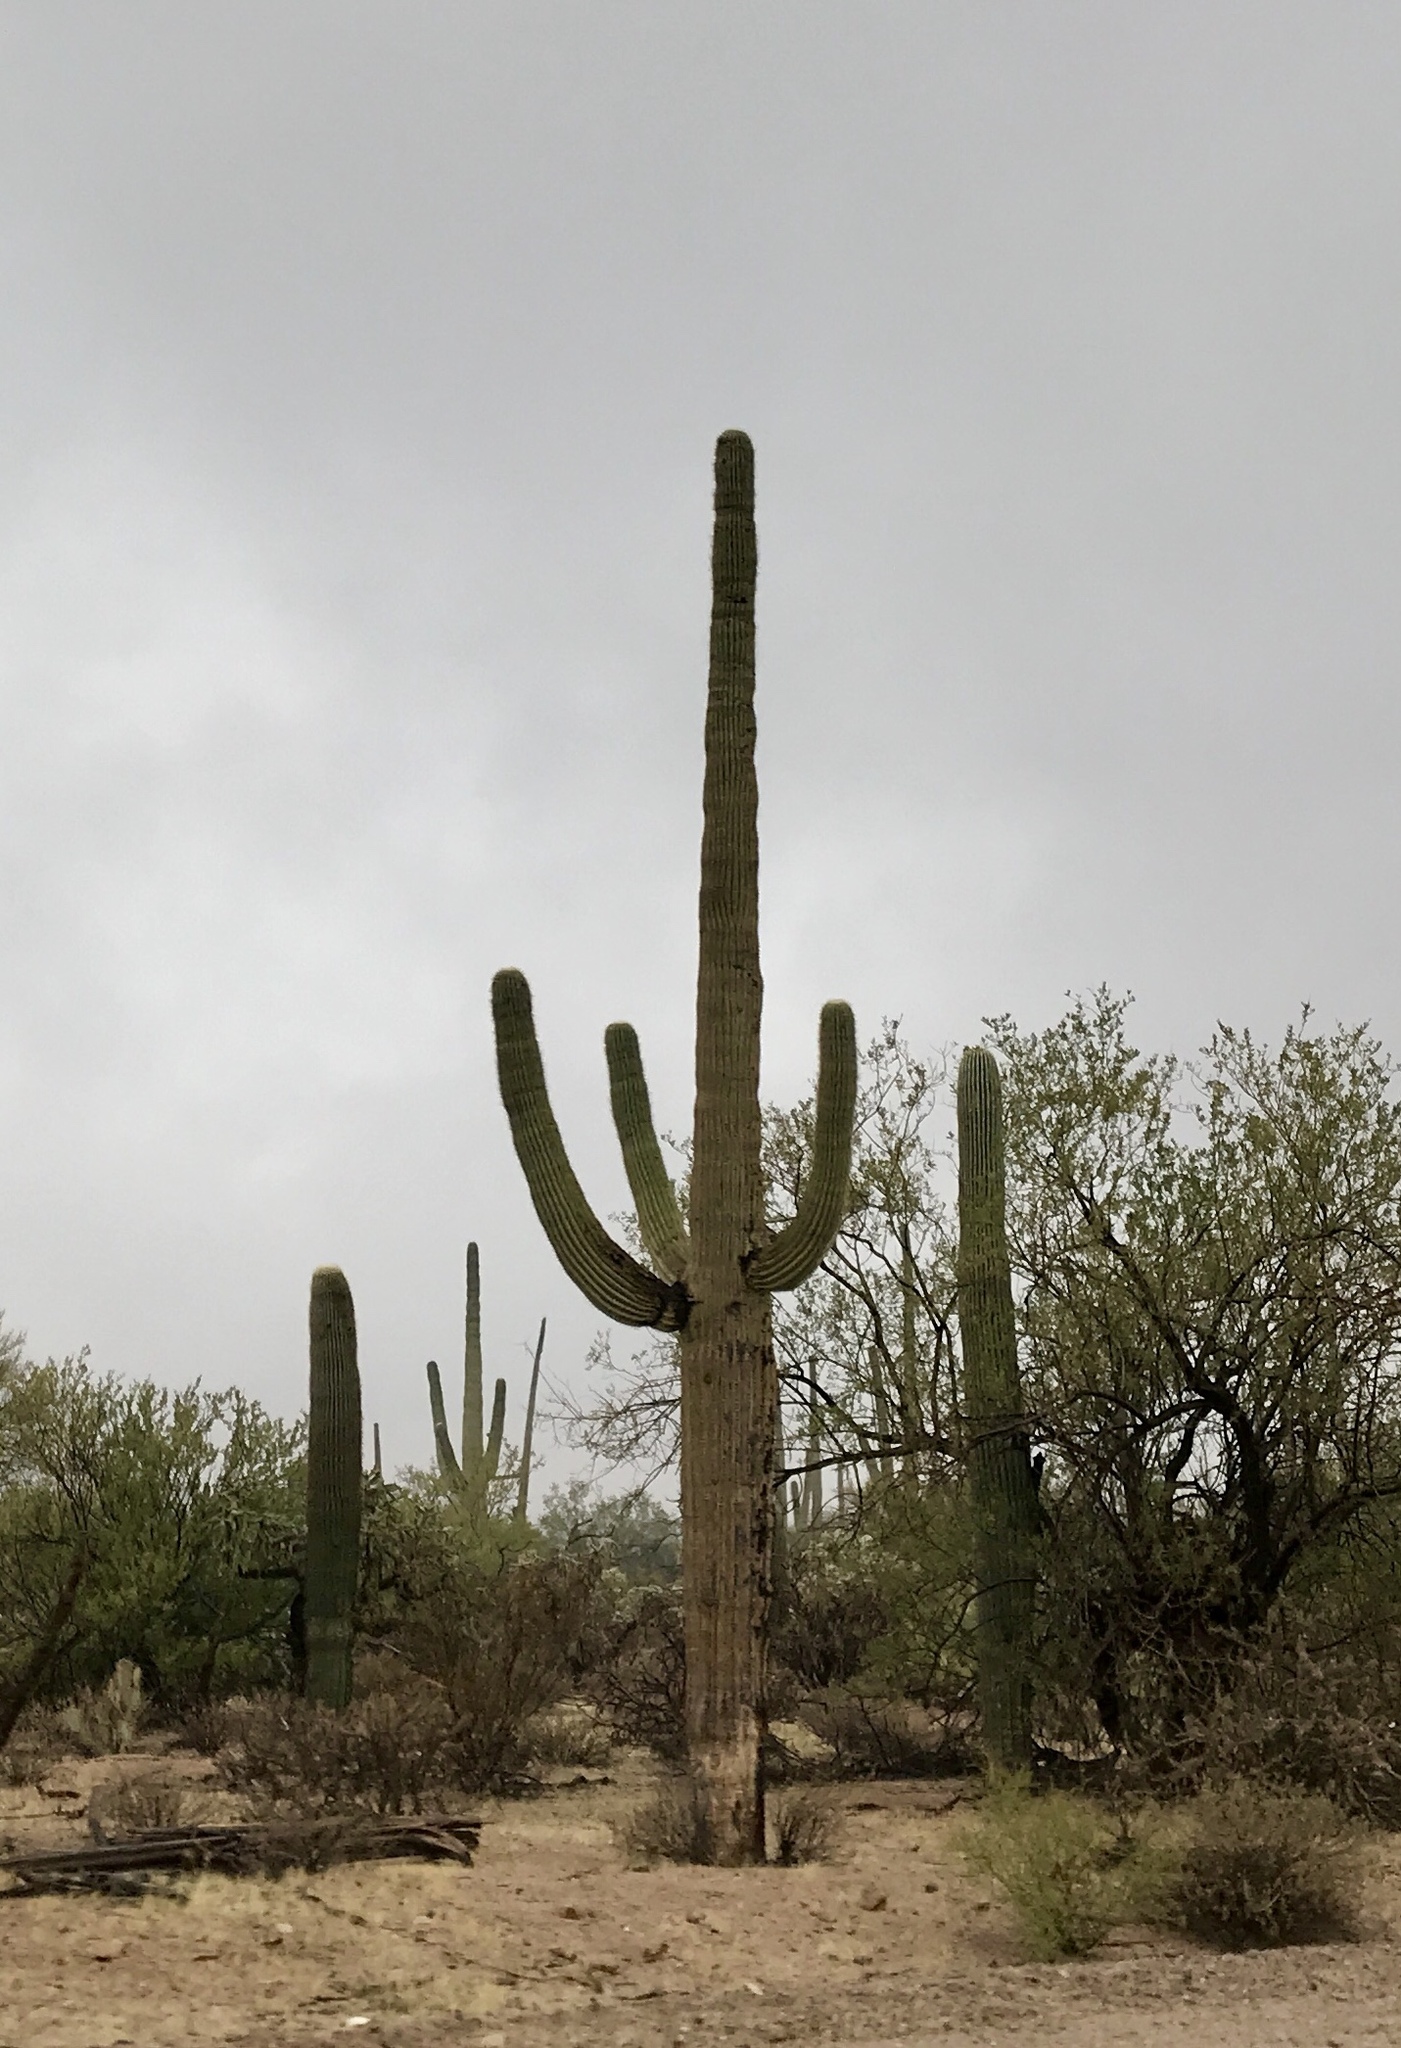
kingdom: Plantae
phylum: Tracheophyta
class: Magnoliopsida
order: Caryophyllales
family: Cactaceae
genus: Carnegiea
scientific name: Carnegiea gigantea
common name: Saguaro
